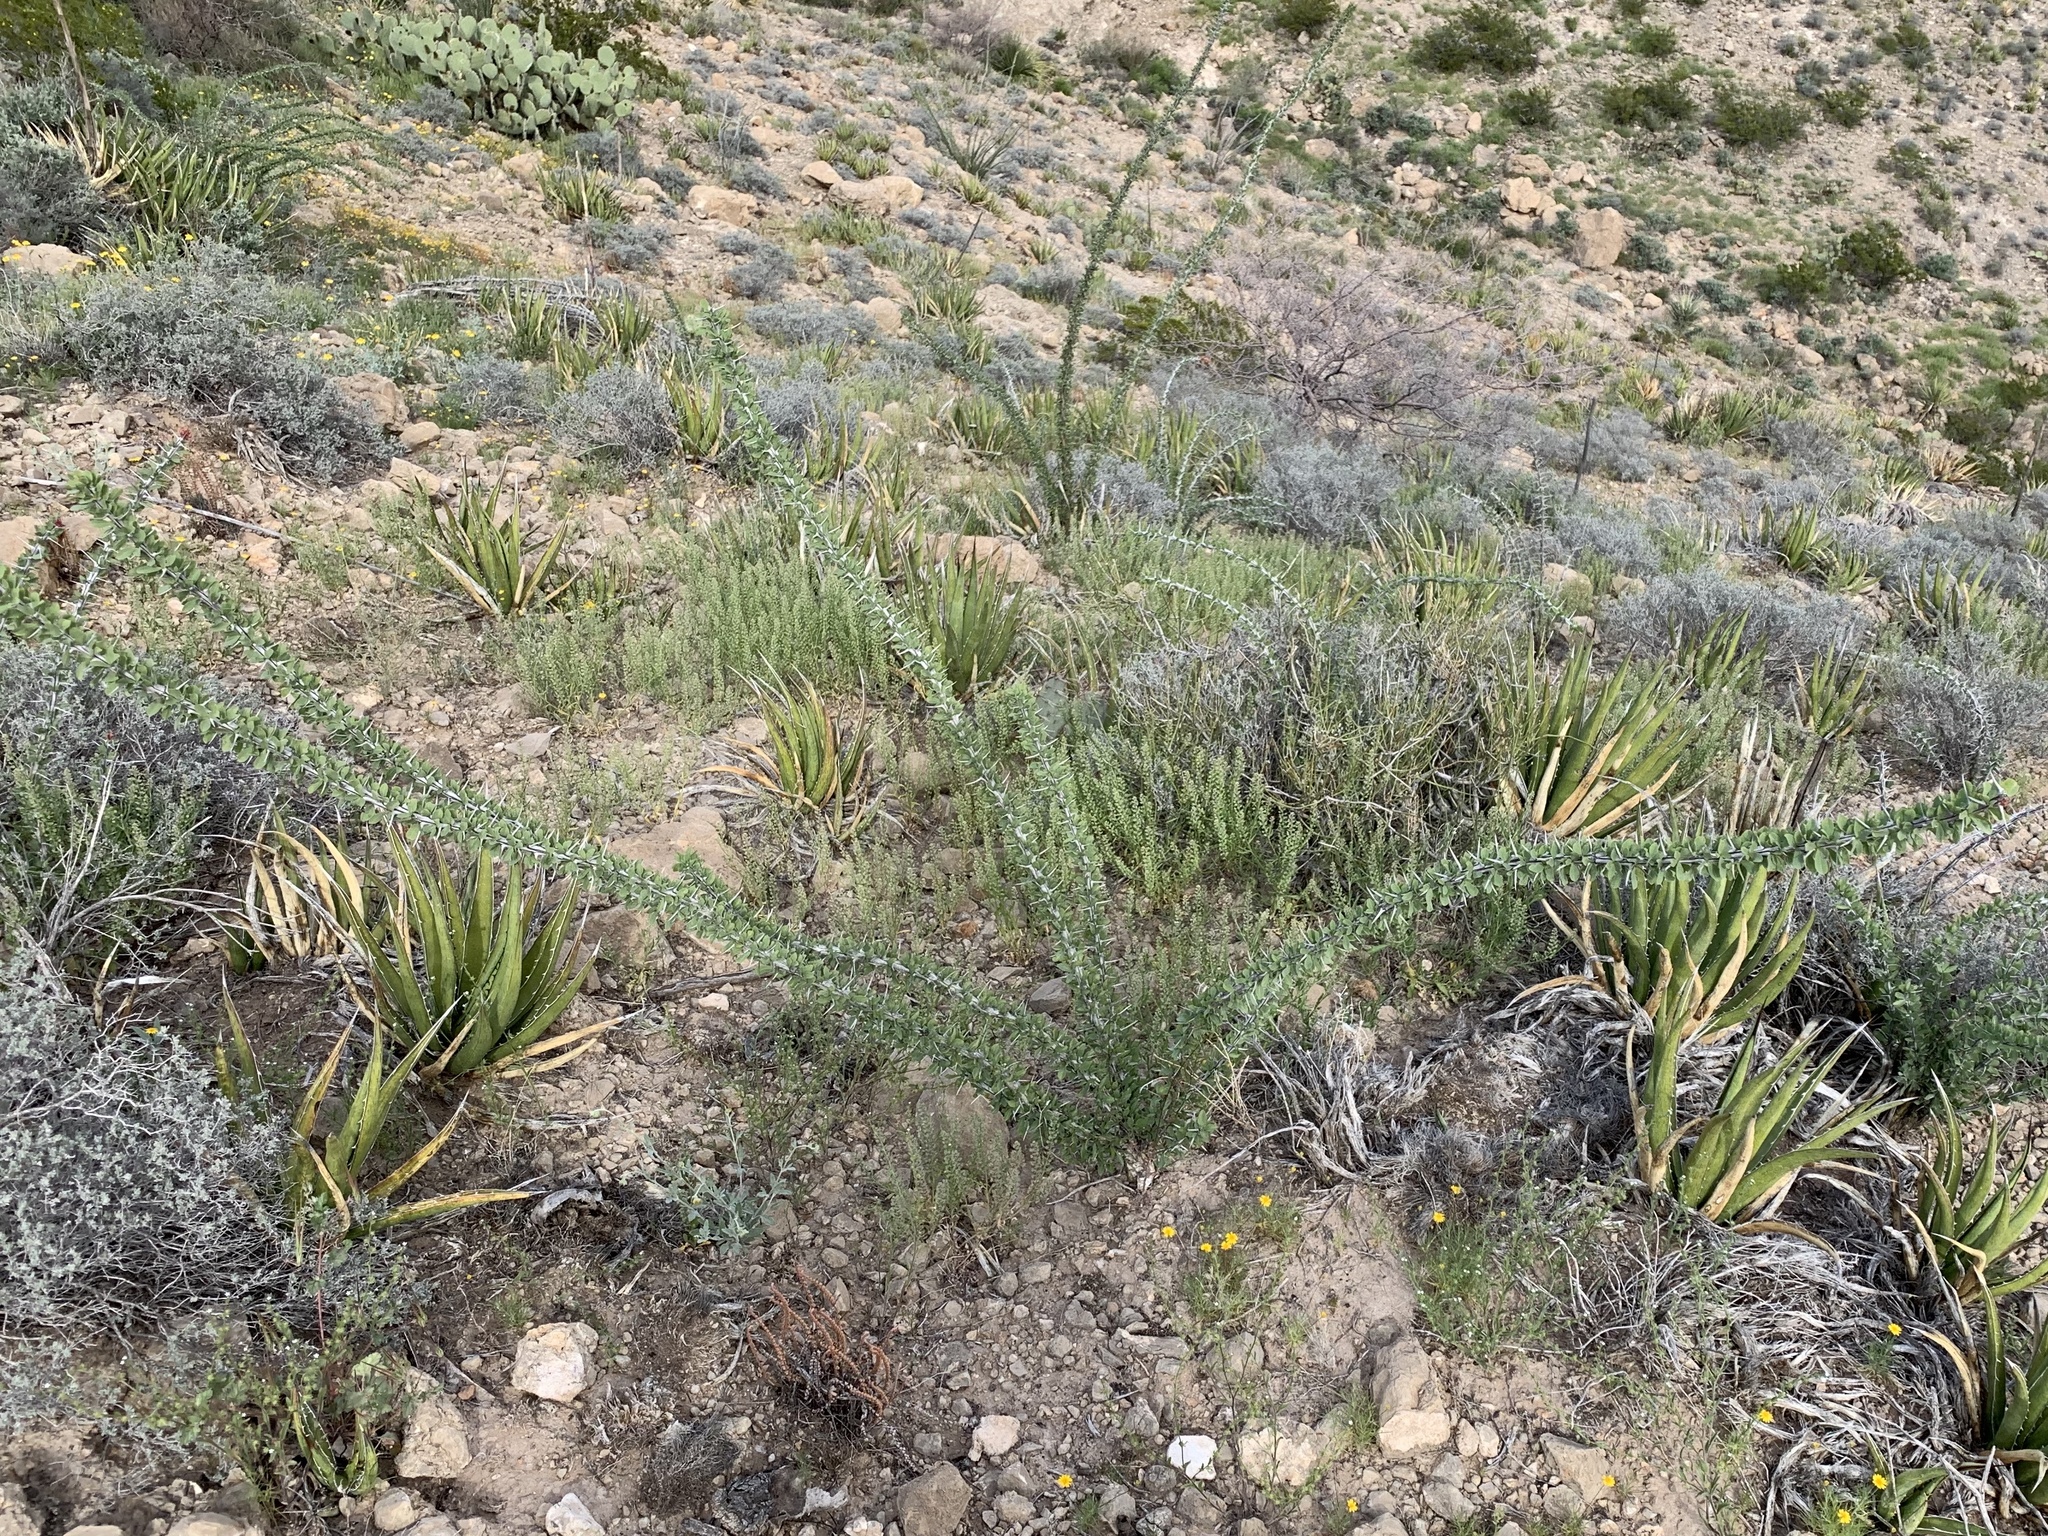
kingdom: Plantae
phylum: Tracheophyta
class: Magnoliopsida
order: Ericales
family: Fouquieriaceae
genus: Fouquieria
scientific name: Fouquieria splendens
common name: Vine-cactus
